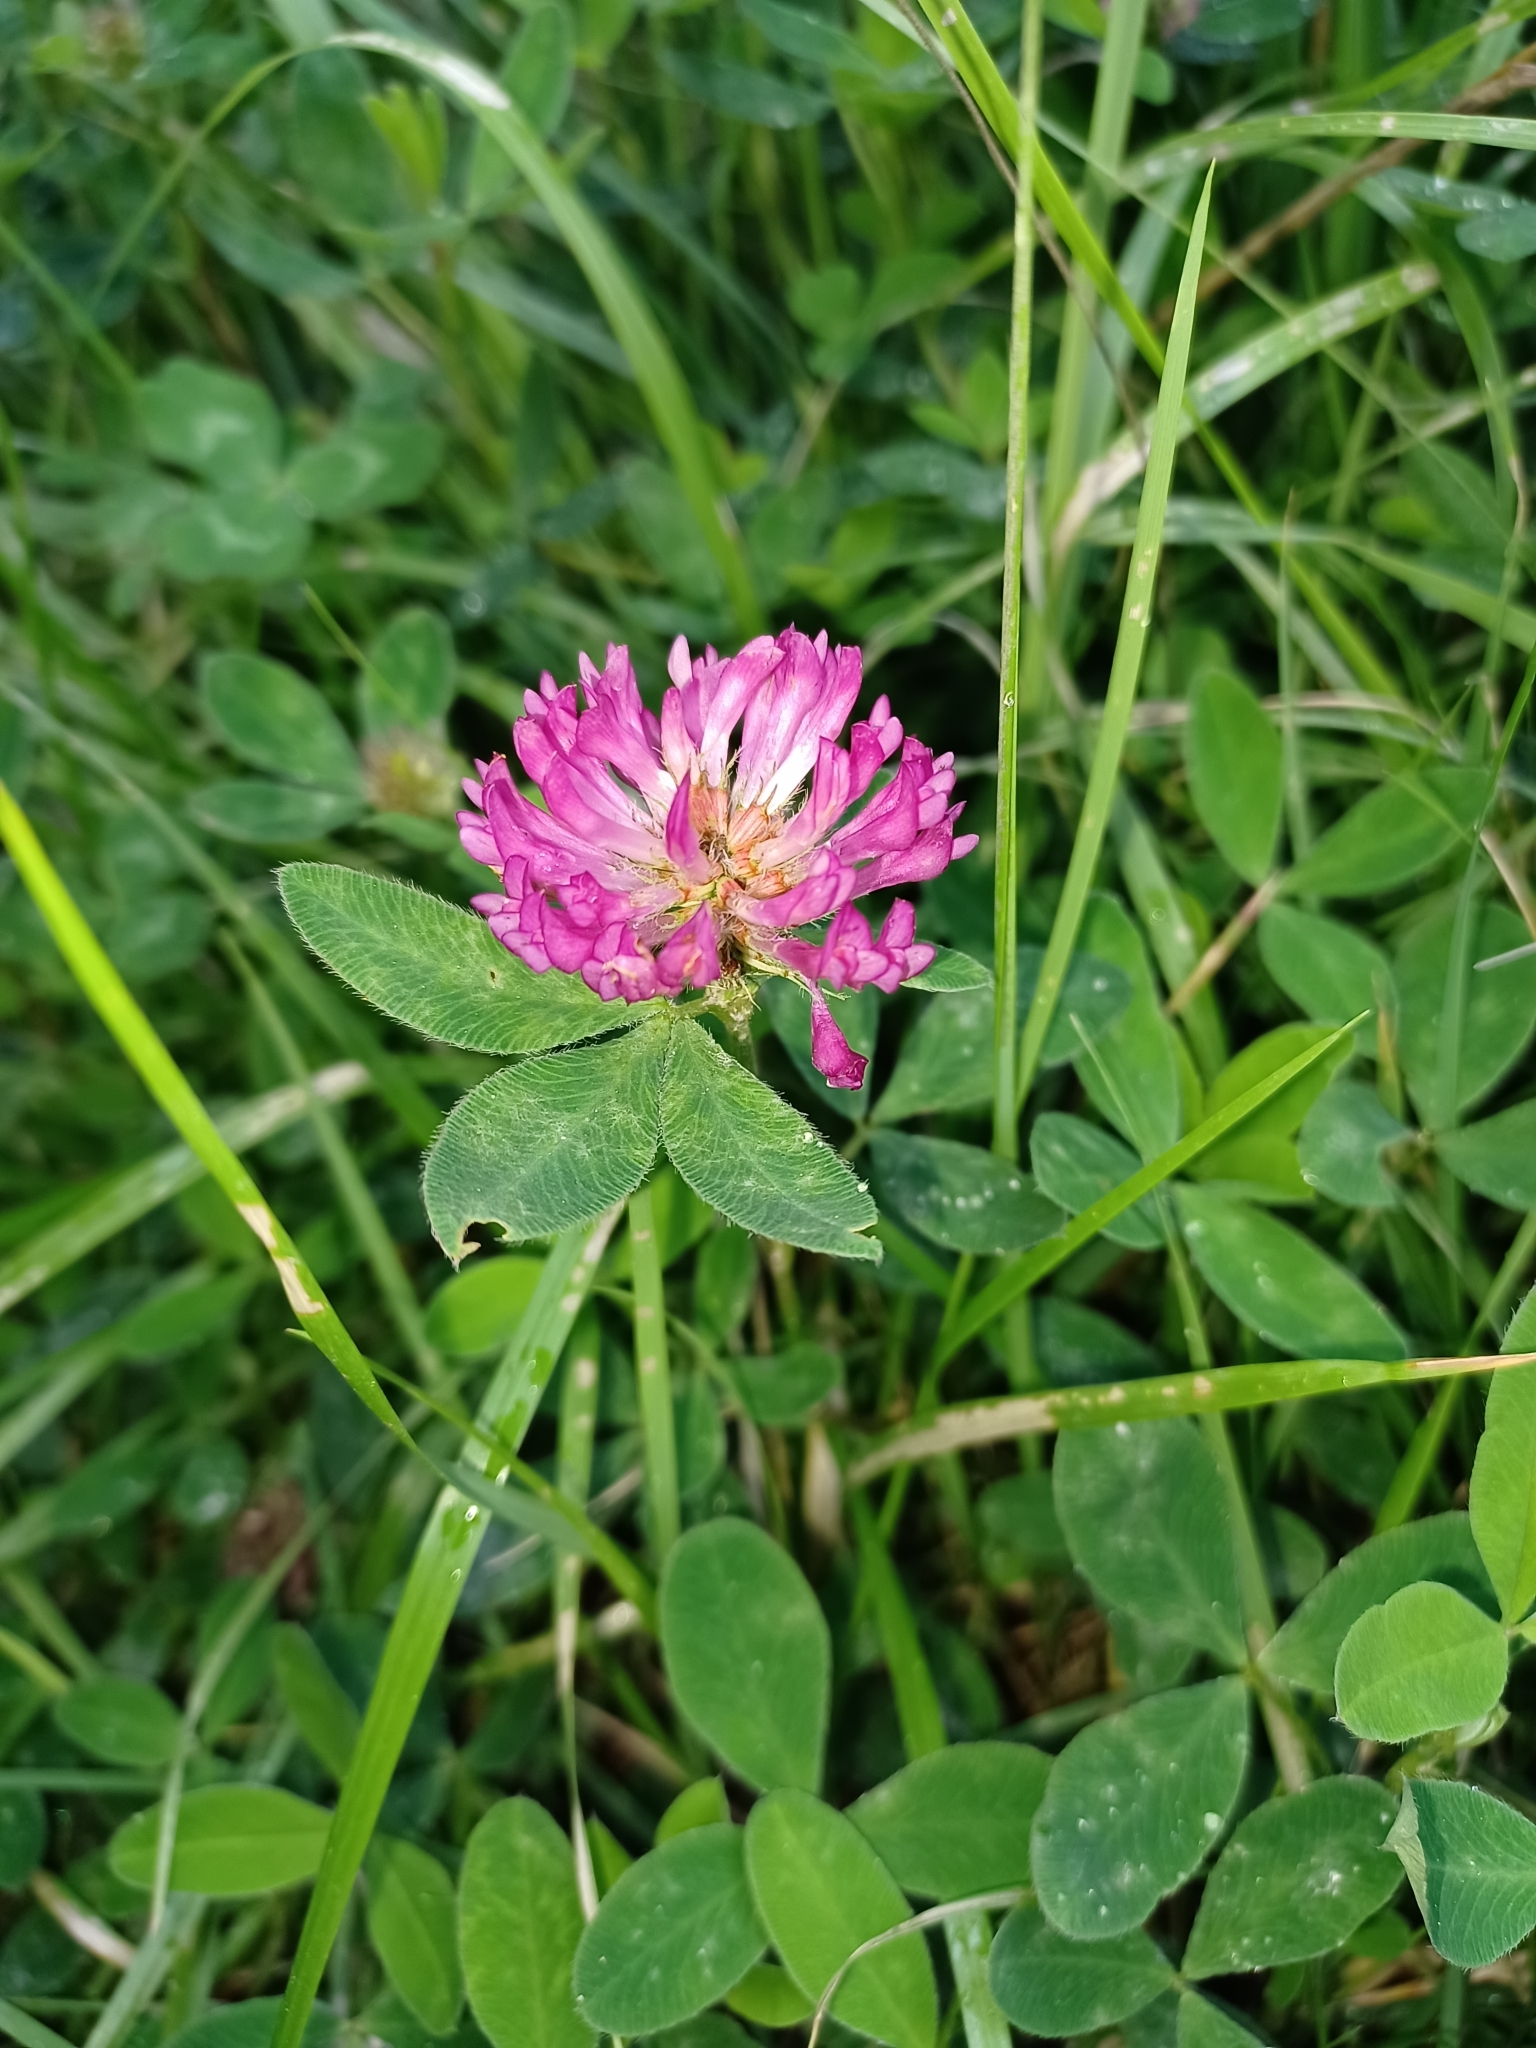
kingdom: Plantae
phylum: Tracheophyta
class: Magnoliopsida
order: Fabales
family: Fabaceae
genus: Trifolium
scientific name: Trifolium medium
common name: Zigzag clover
